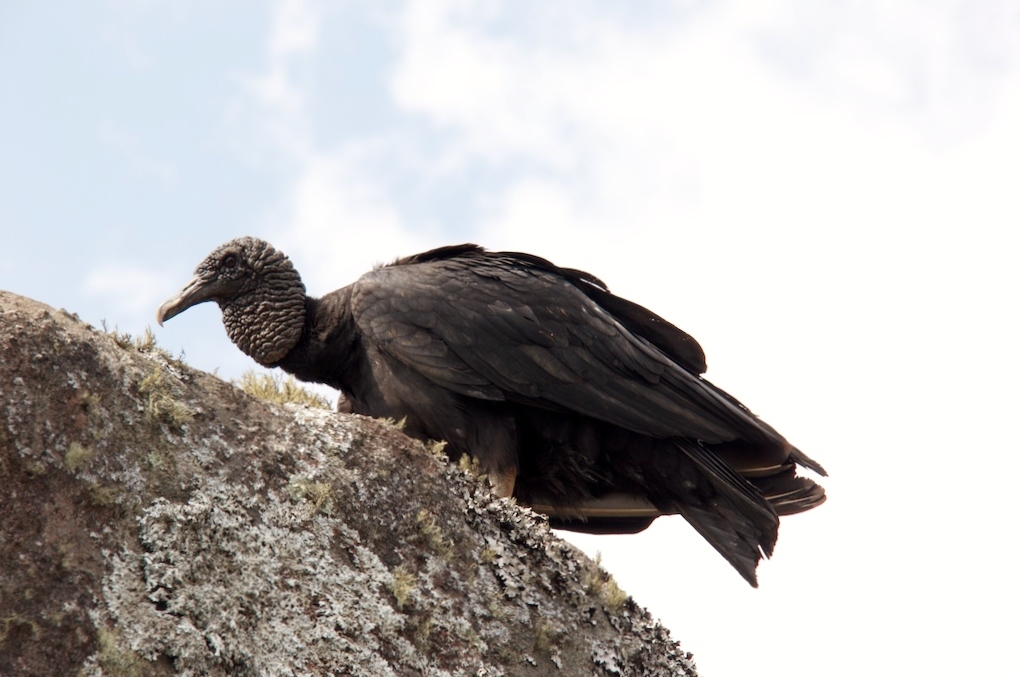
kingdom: Animalia
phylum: Chordata
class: Aves
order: Accipitriformes
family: Cathartidae
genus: Coragyps
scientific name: Coragyps atratus
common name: Black vulture
